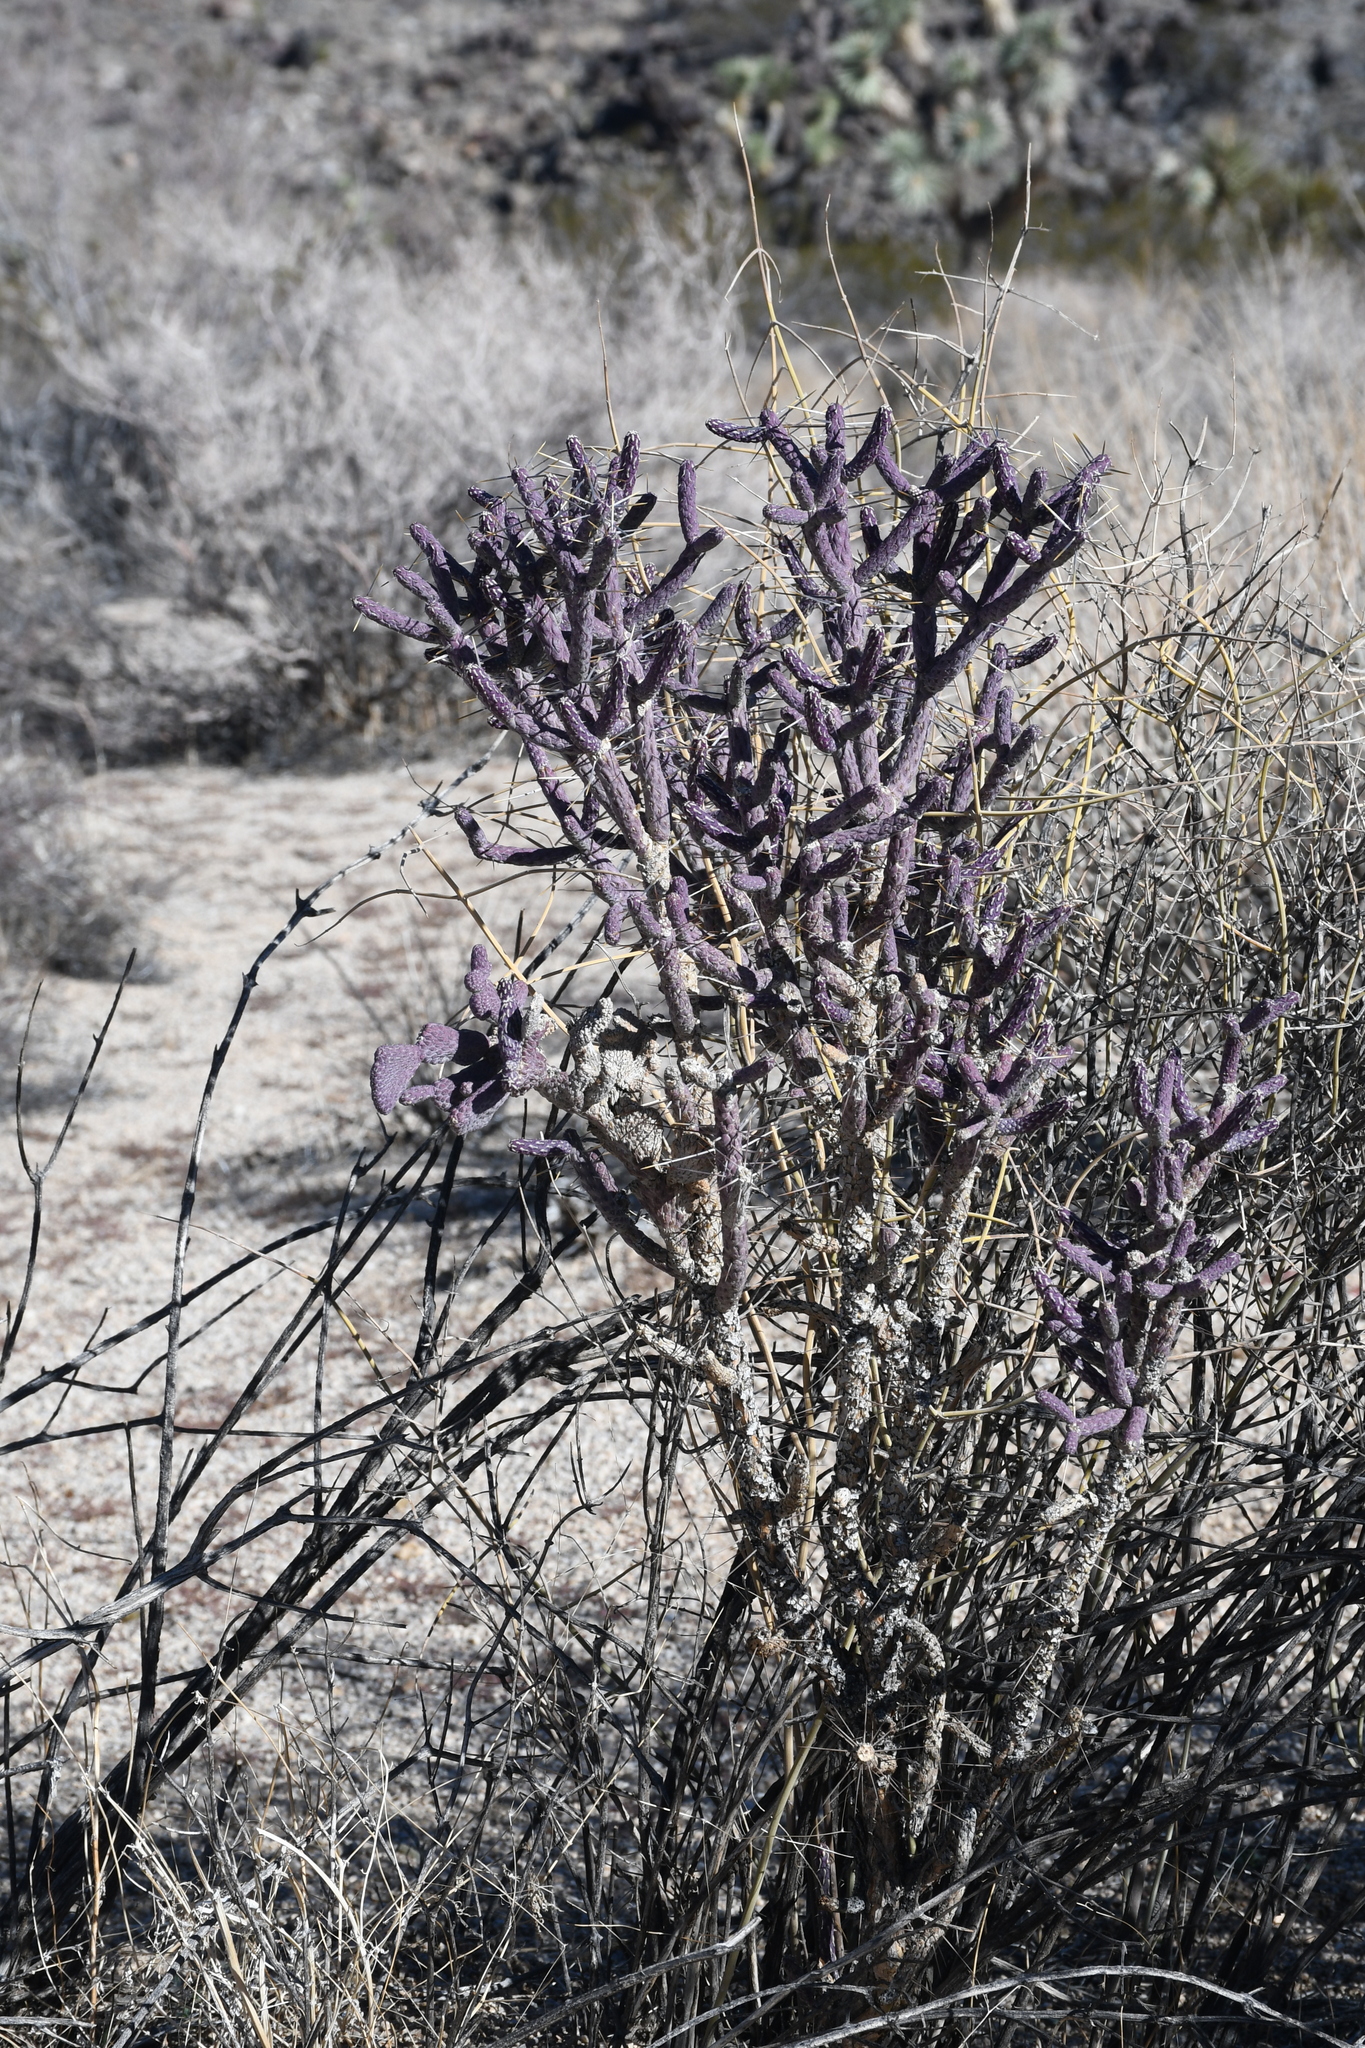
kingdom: Plantae
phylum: Tracheophyta
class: Magnoliopsida
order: Caryophyllales
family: Cactaceae
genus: Cylindropuntia
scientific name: Cylindropuntia ramosissima
